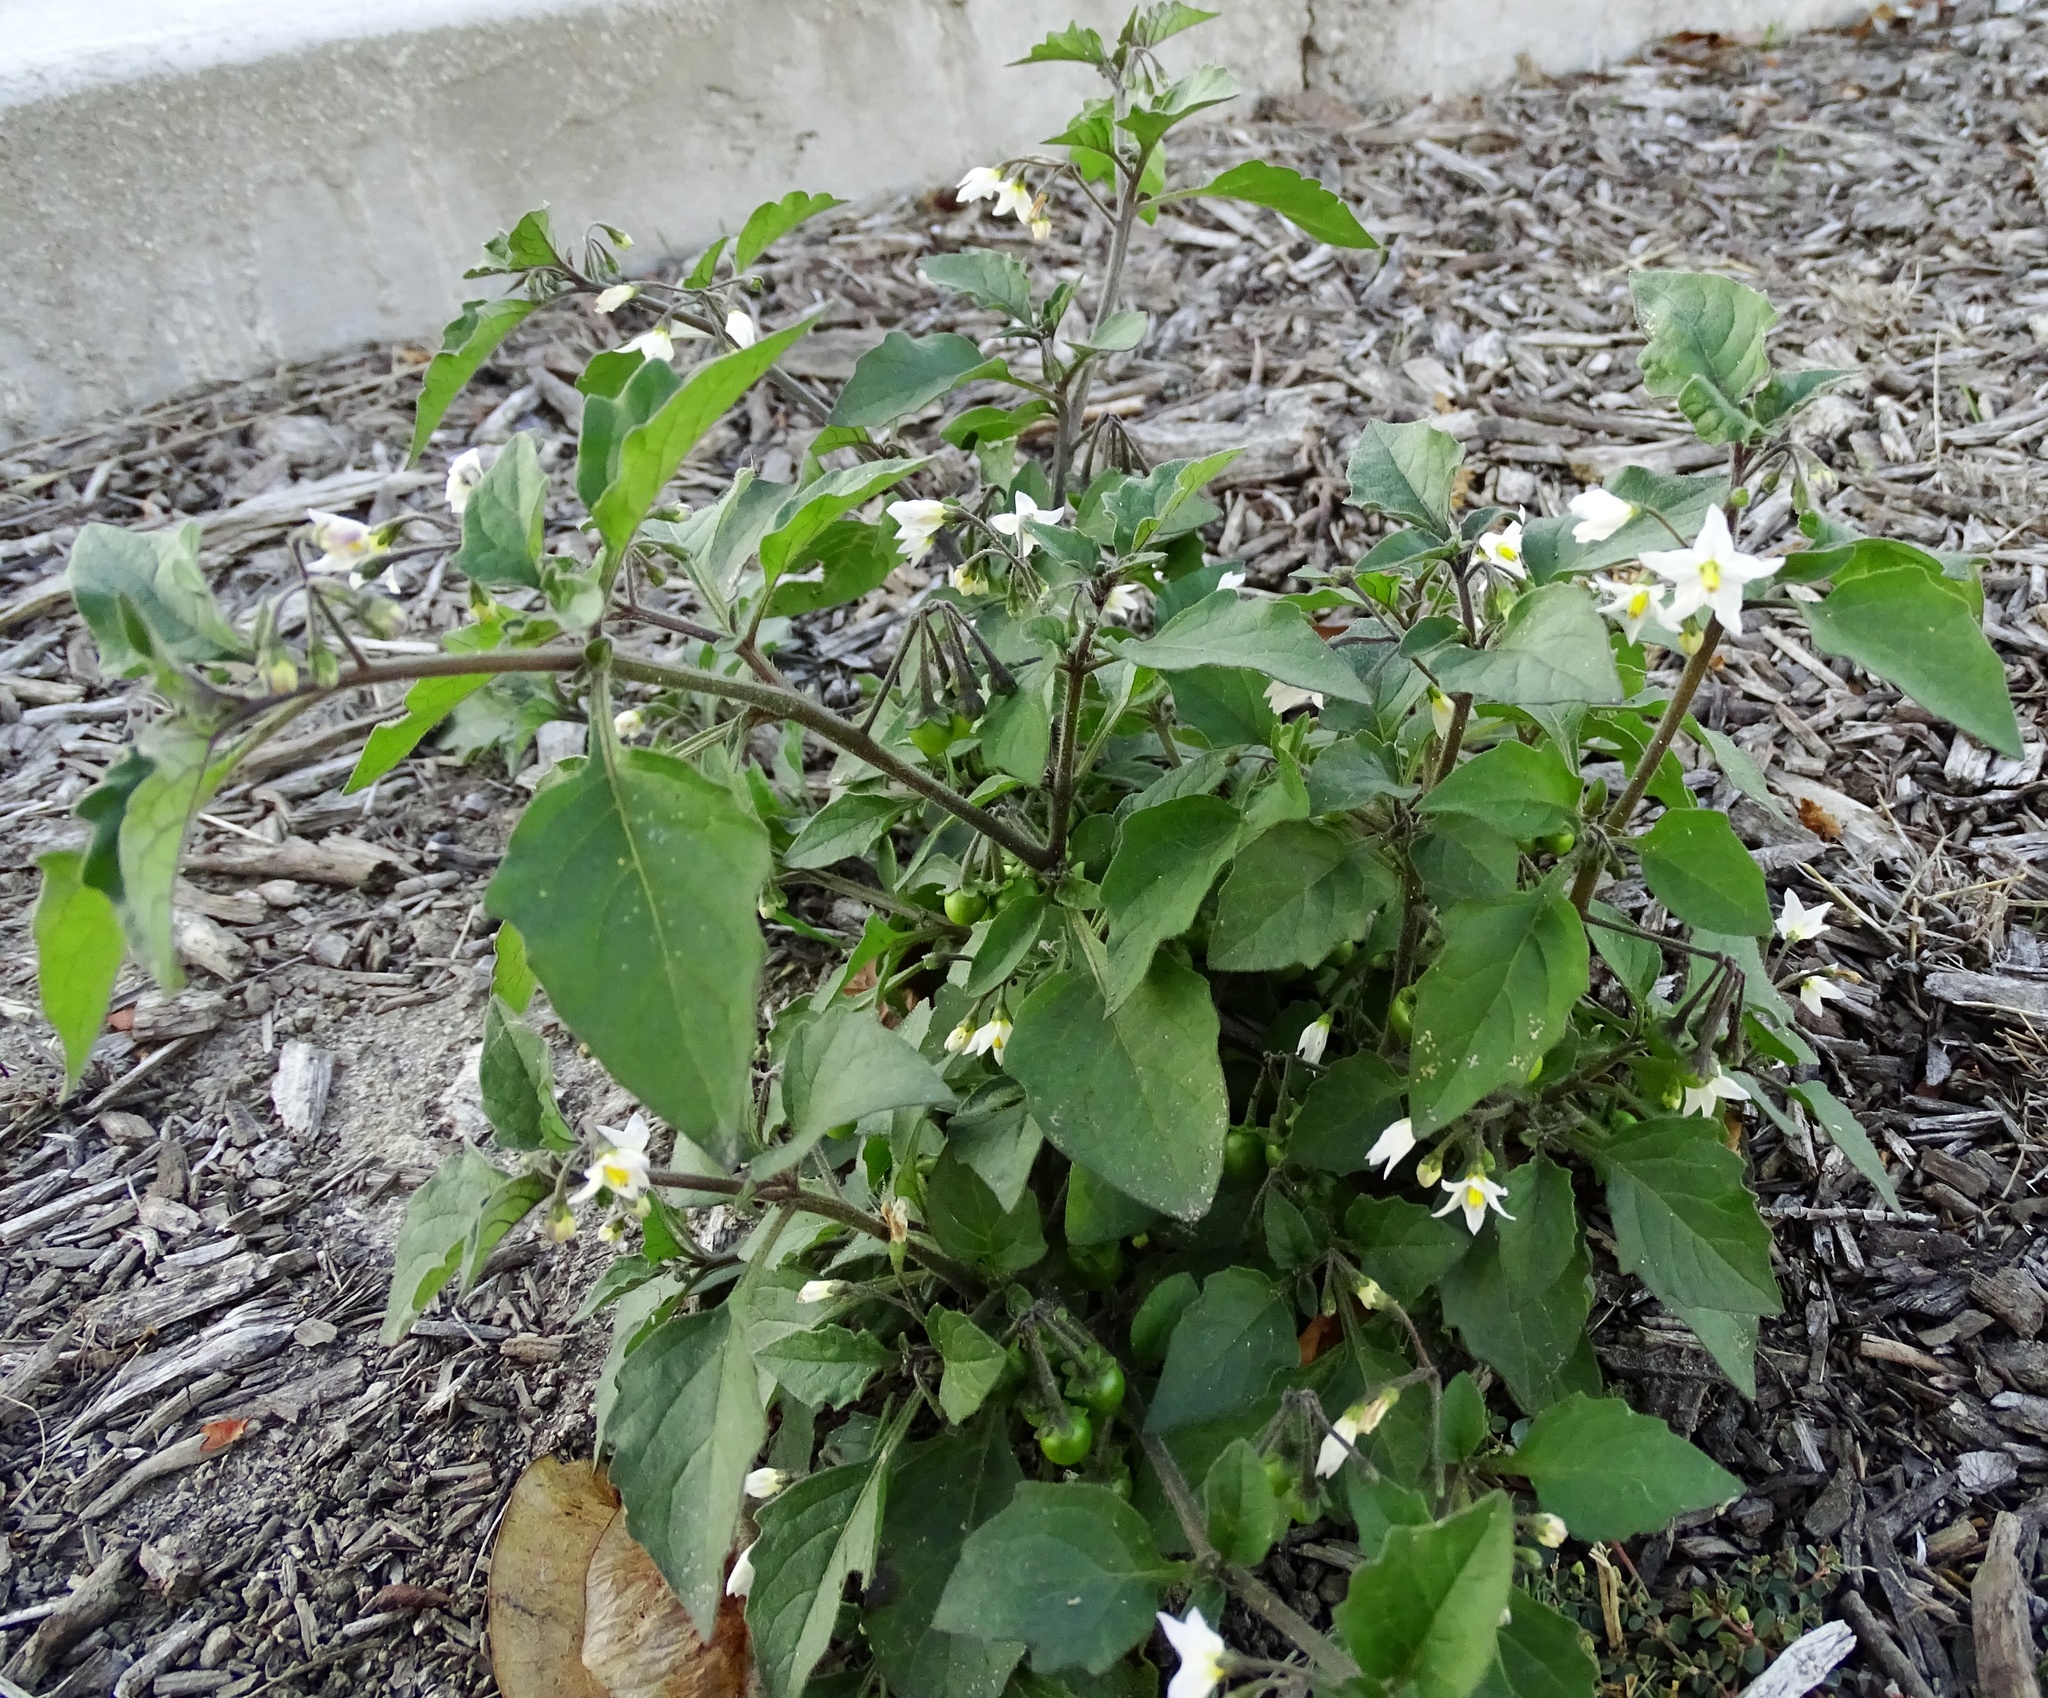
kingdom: Plantae
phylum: Tracheophyta
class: Magnoliopsida
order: Solanales
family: Solanaceae
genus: Solanum
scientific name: Solanum nigrum
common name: Black nightshade
